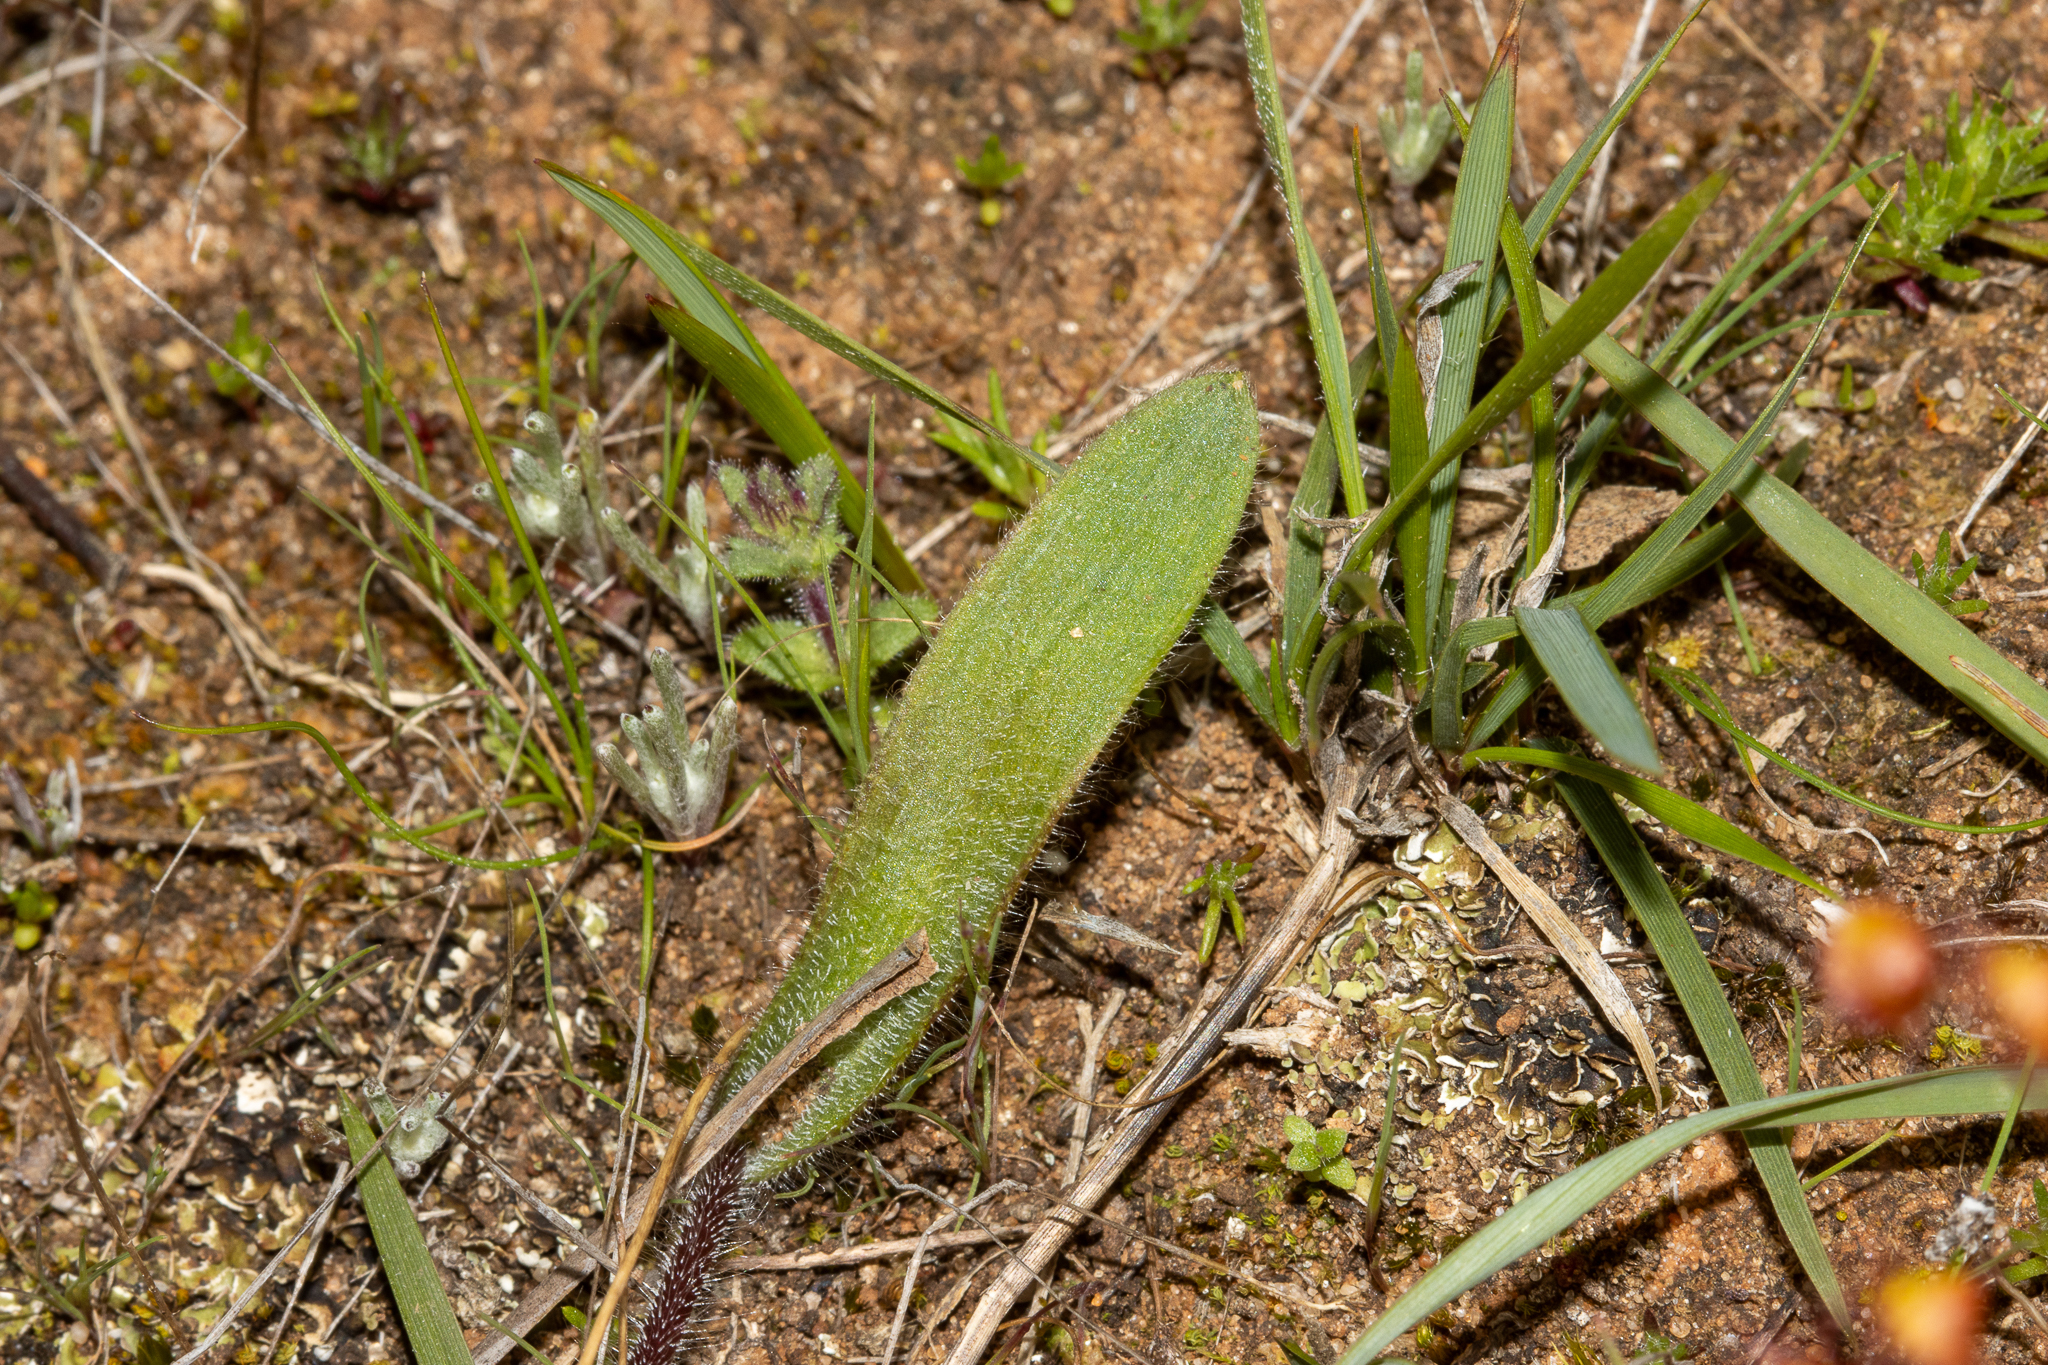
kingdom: Plantae
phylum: Tracheophyta
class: Liliopsida
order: Asparagales
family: Orchidaceae
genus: Caladenia
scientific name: Caladenia conferta
